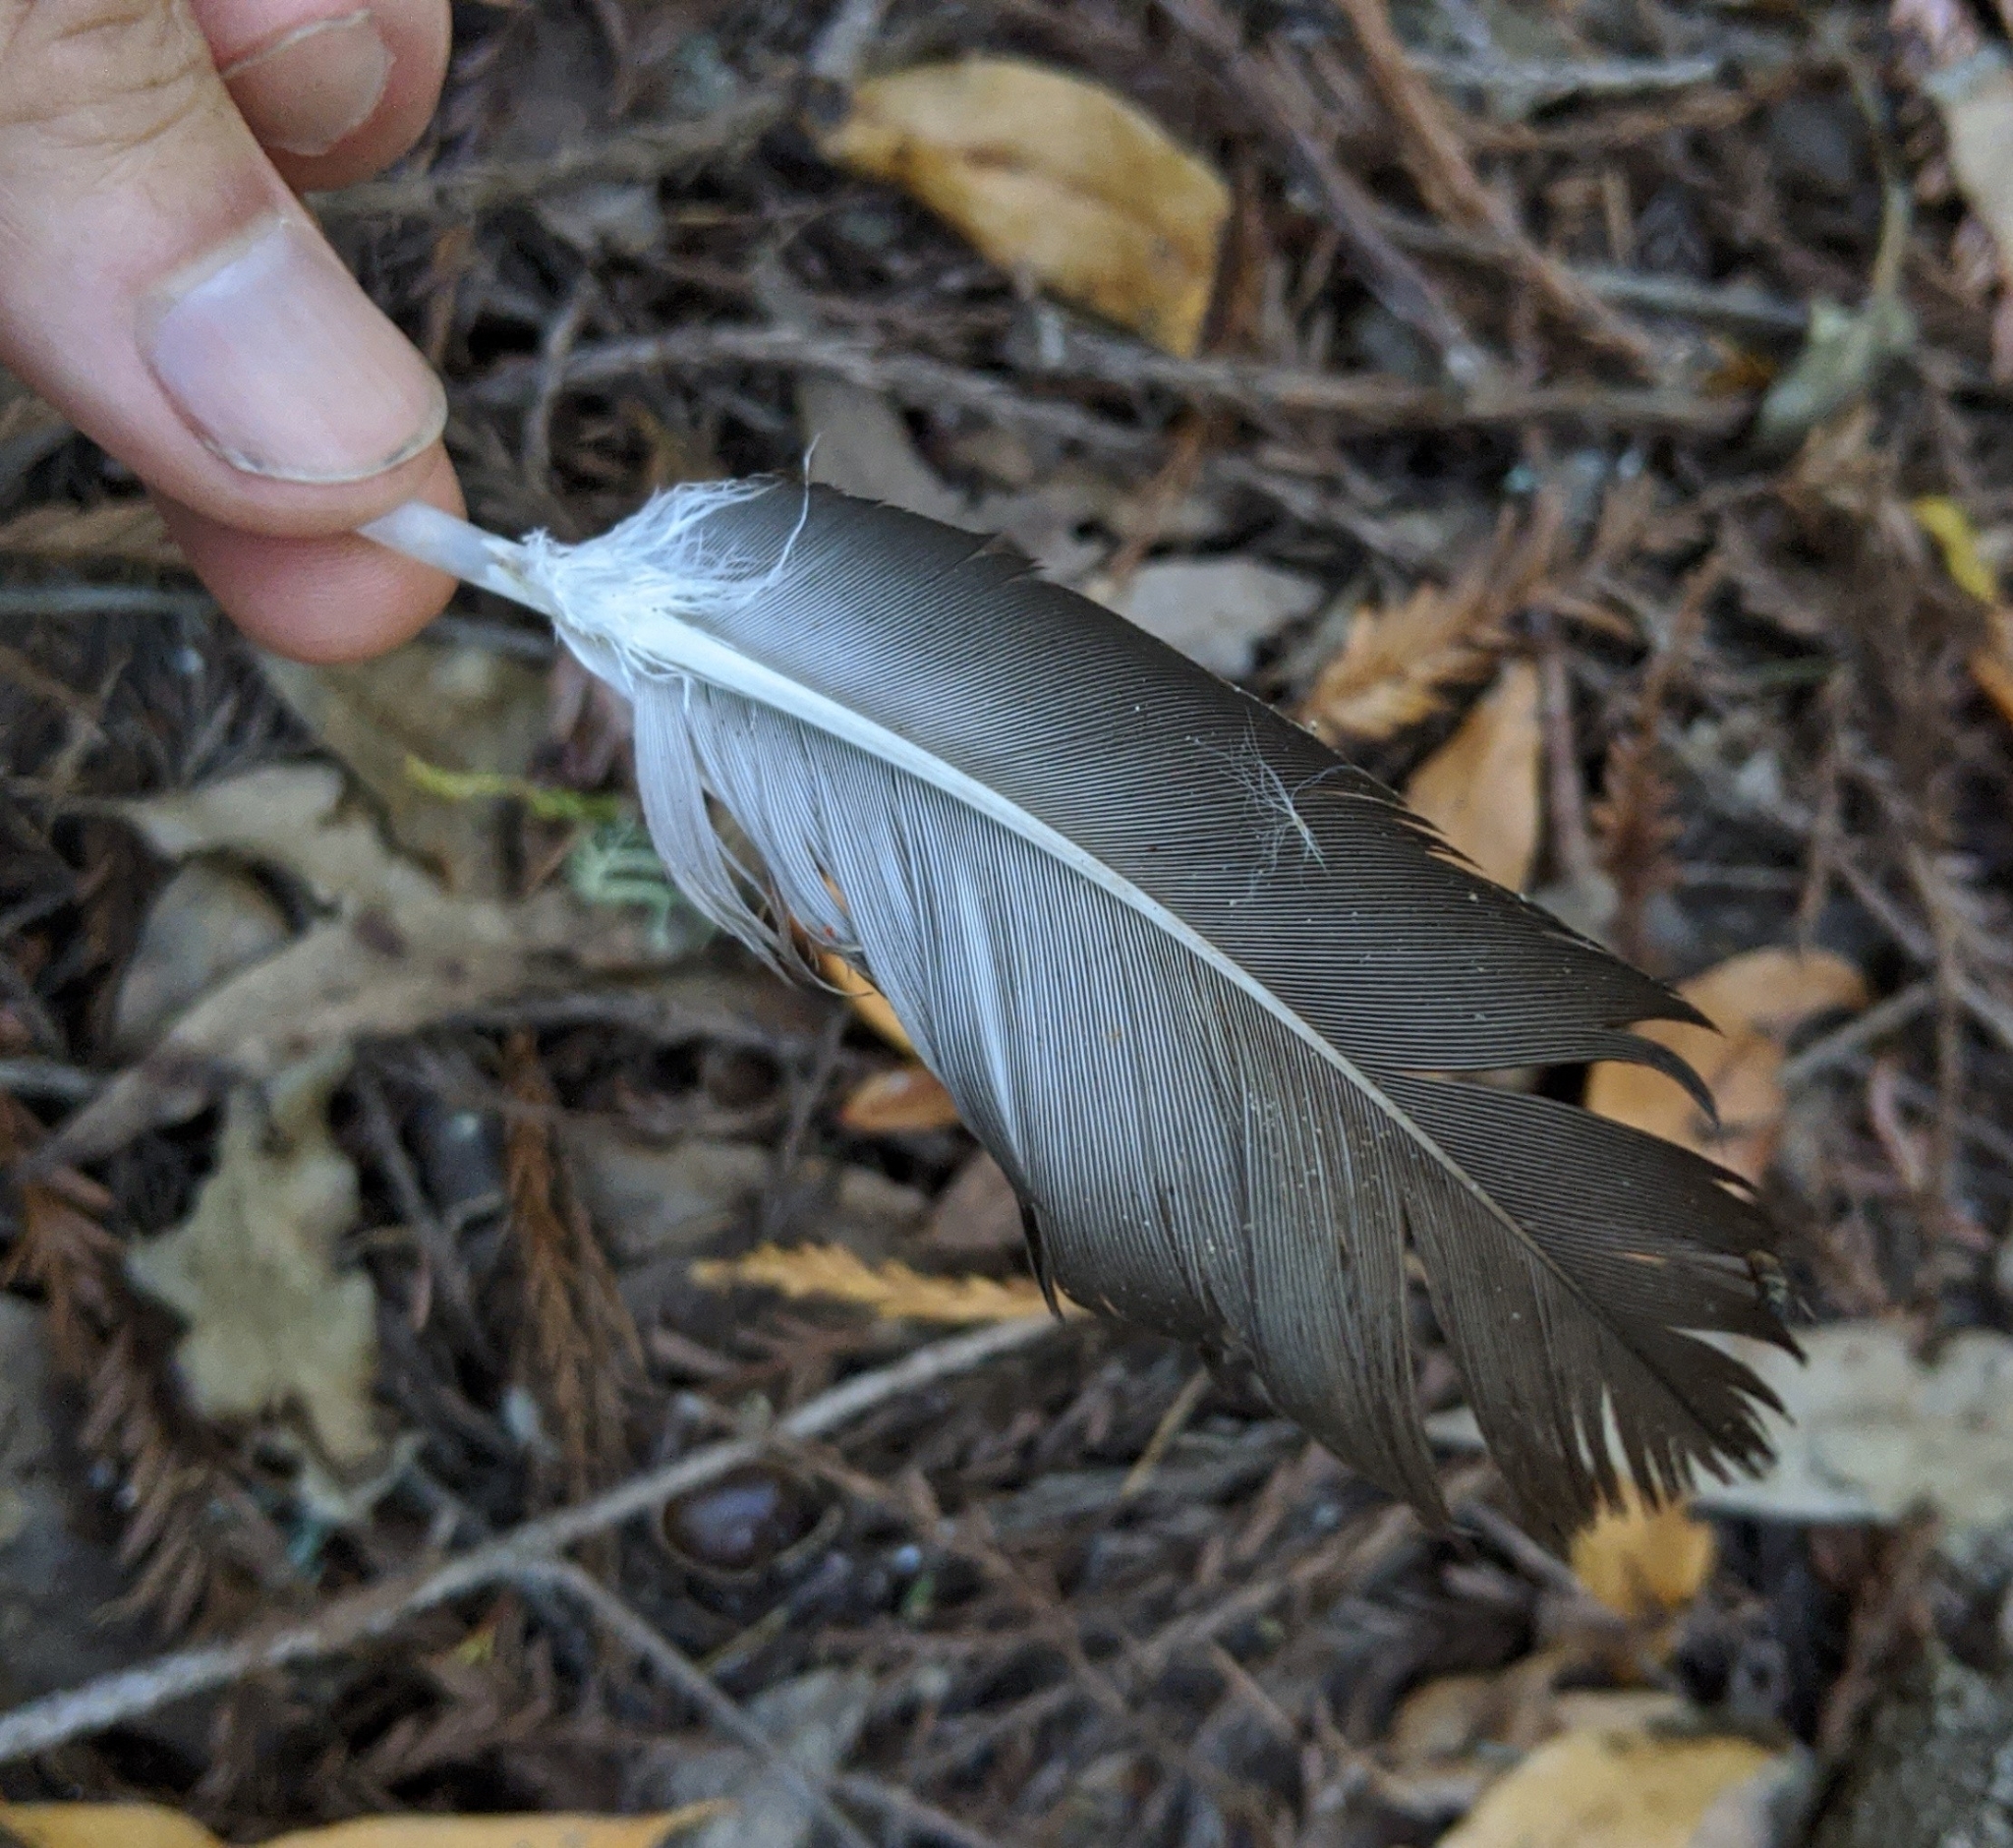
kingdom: Animalia
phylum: Chordata
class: Aves
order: Accipitriformes
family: Cathartidae
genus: Cathartes
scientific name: Cathartes aura
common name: Turkey vulture
